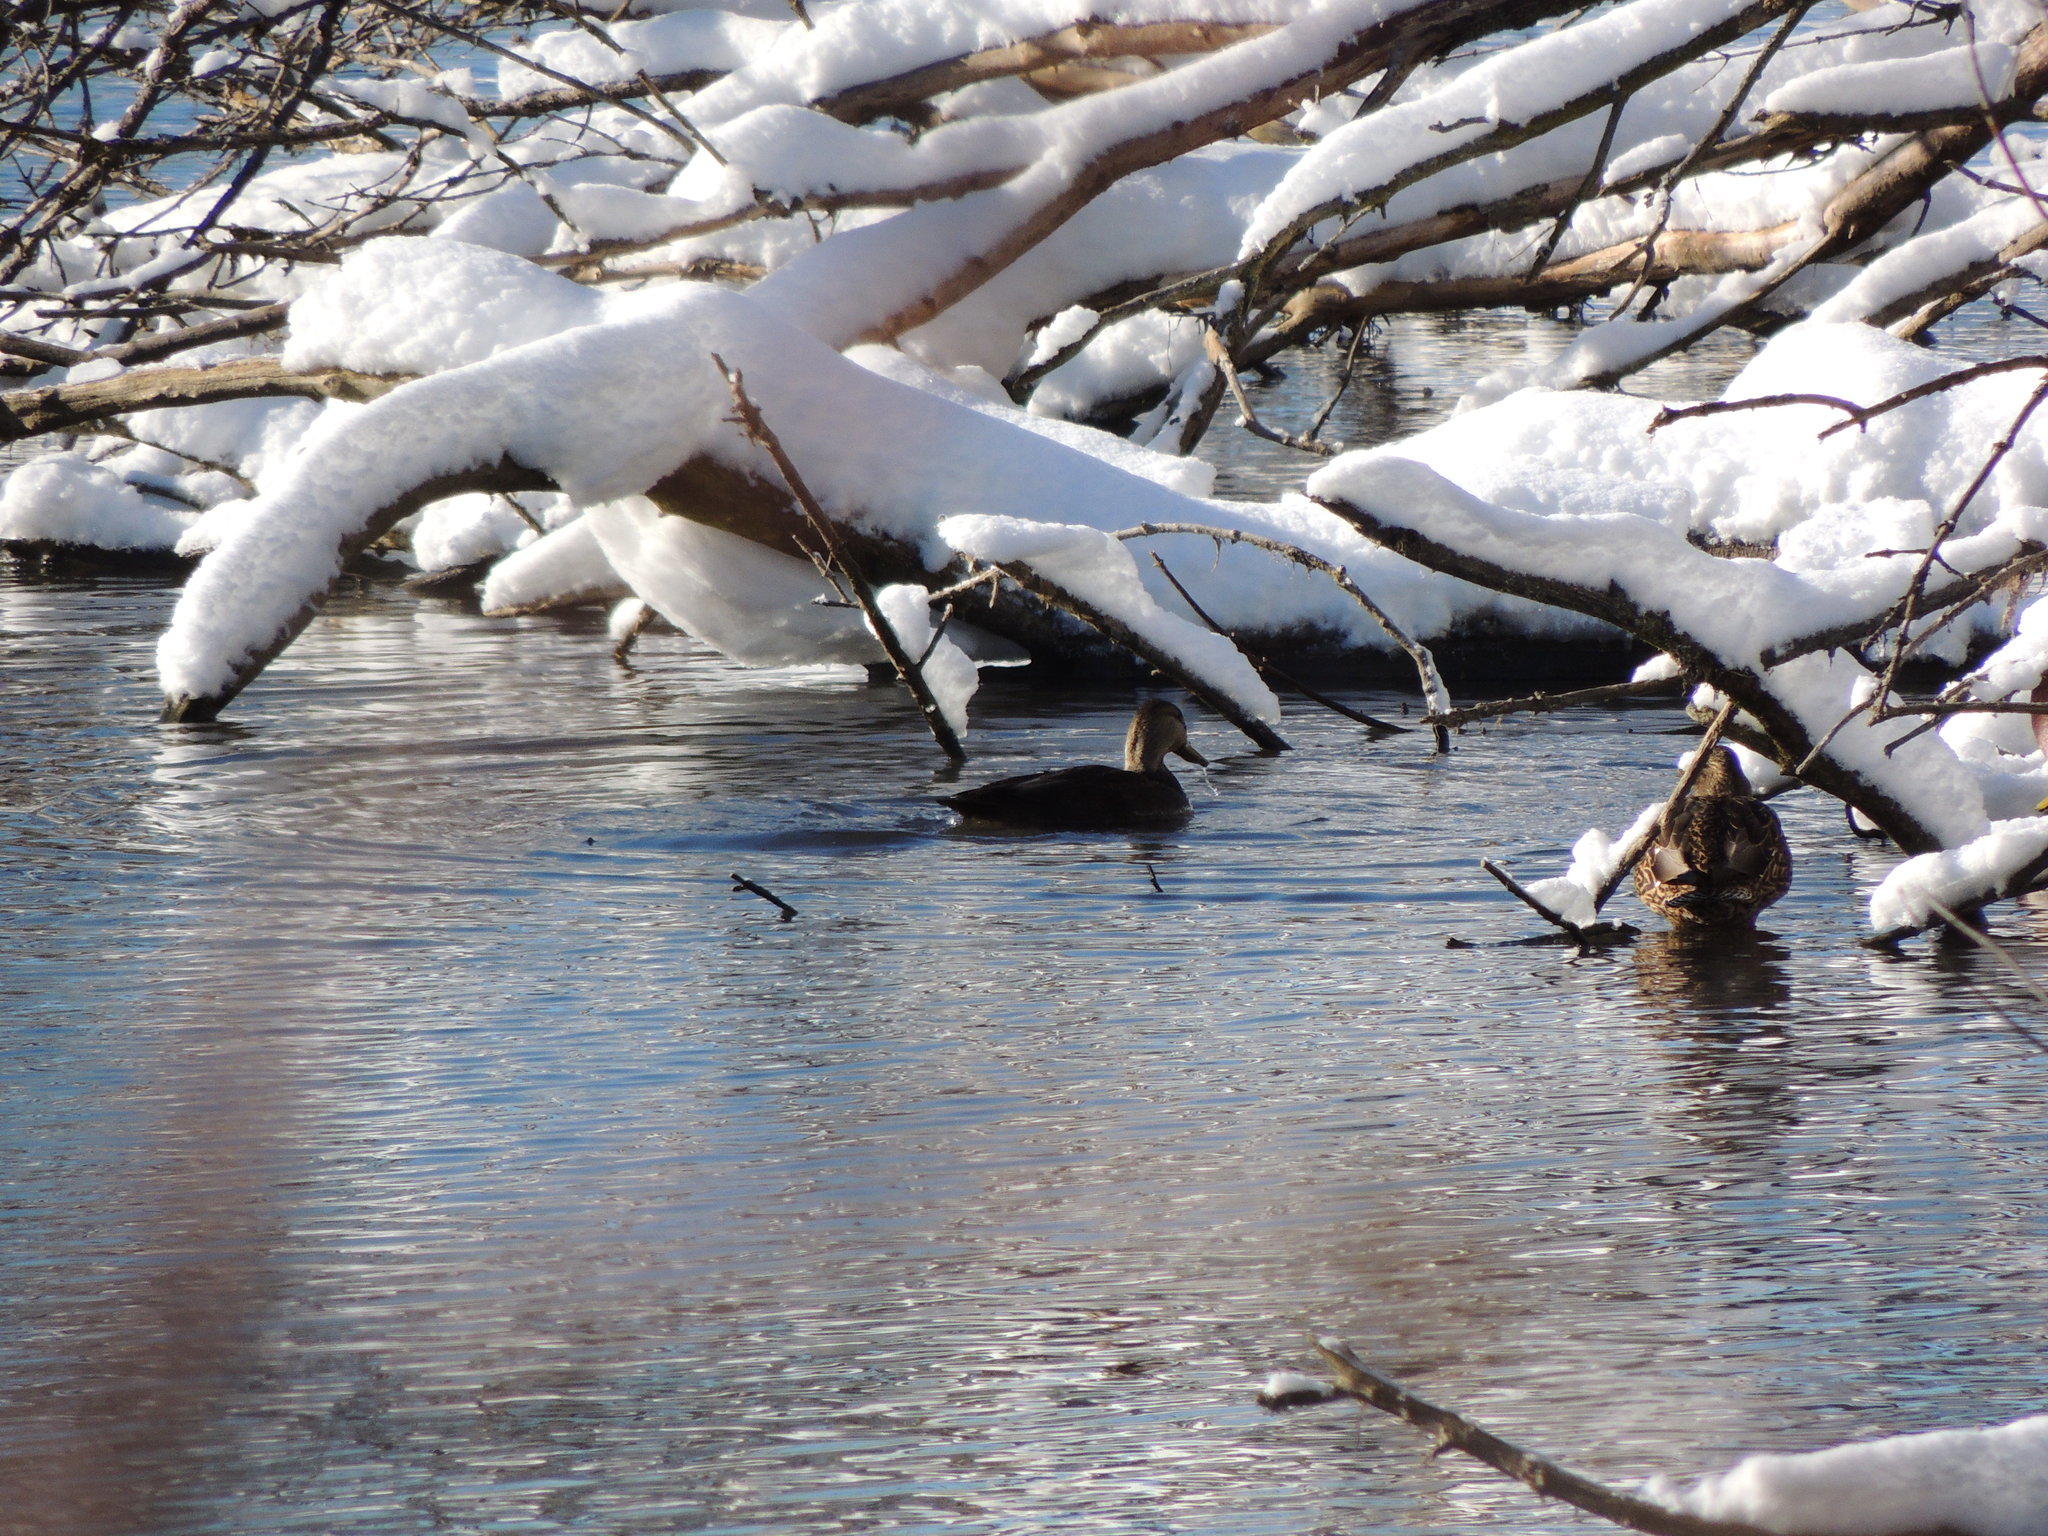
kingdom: Animalia
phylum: Chordata
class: Aves
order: Anseriformes
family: Anatidae
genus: Anas
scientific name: Anas rubripes
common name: American black duck
